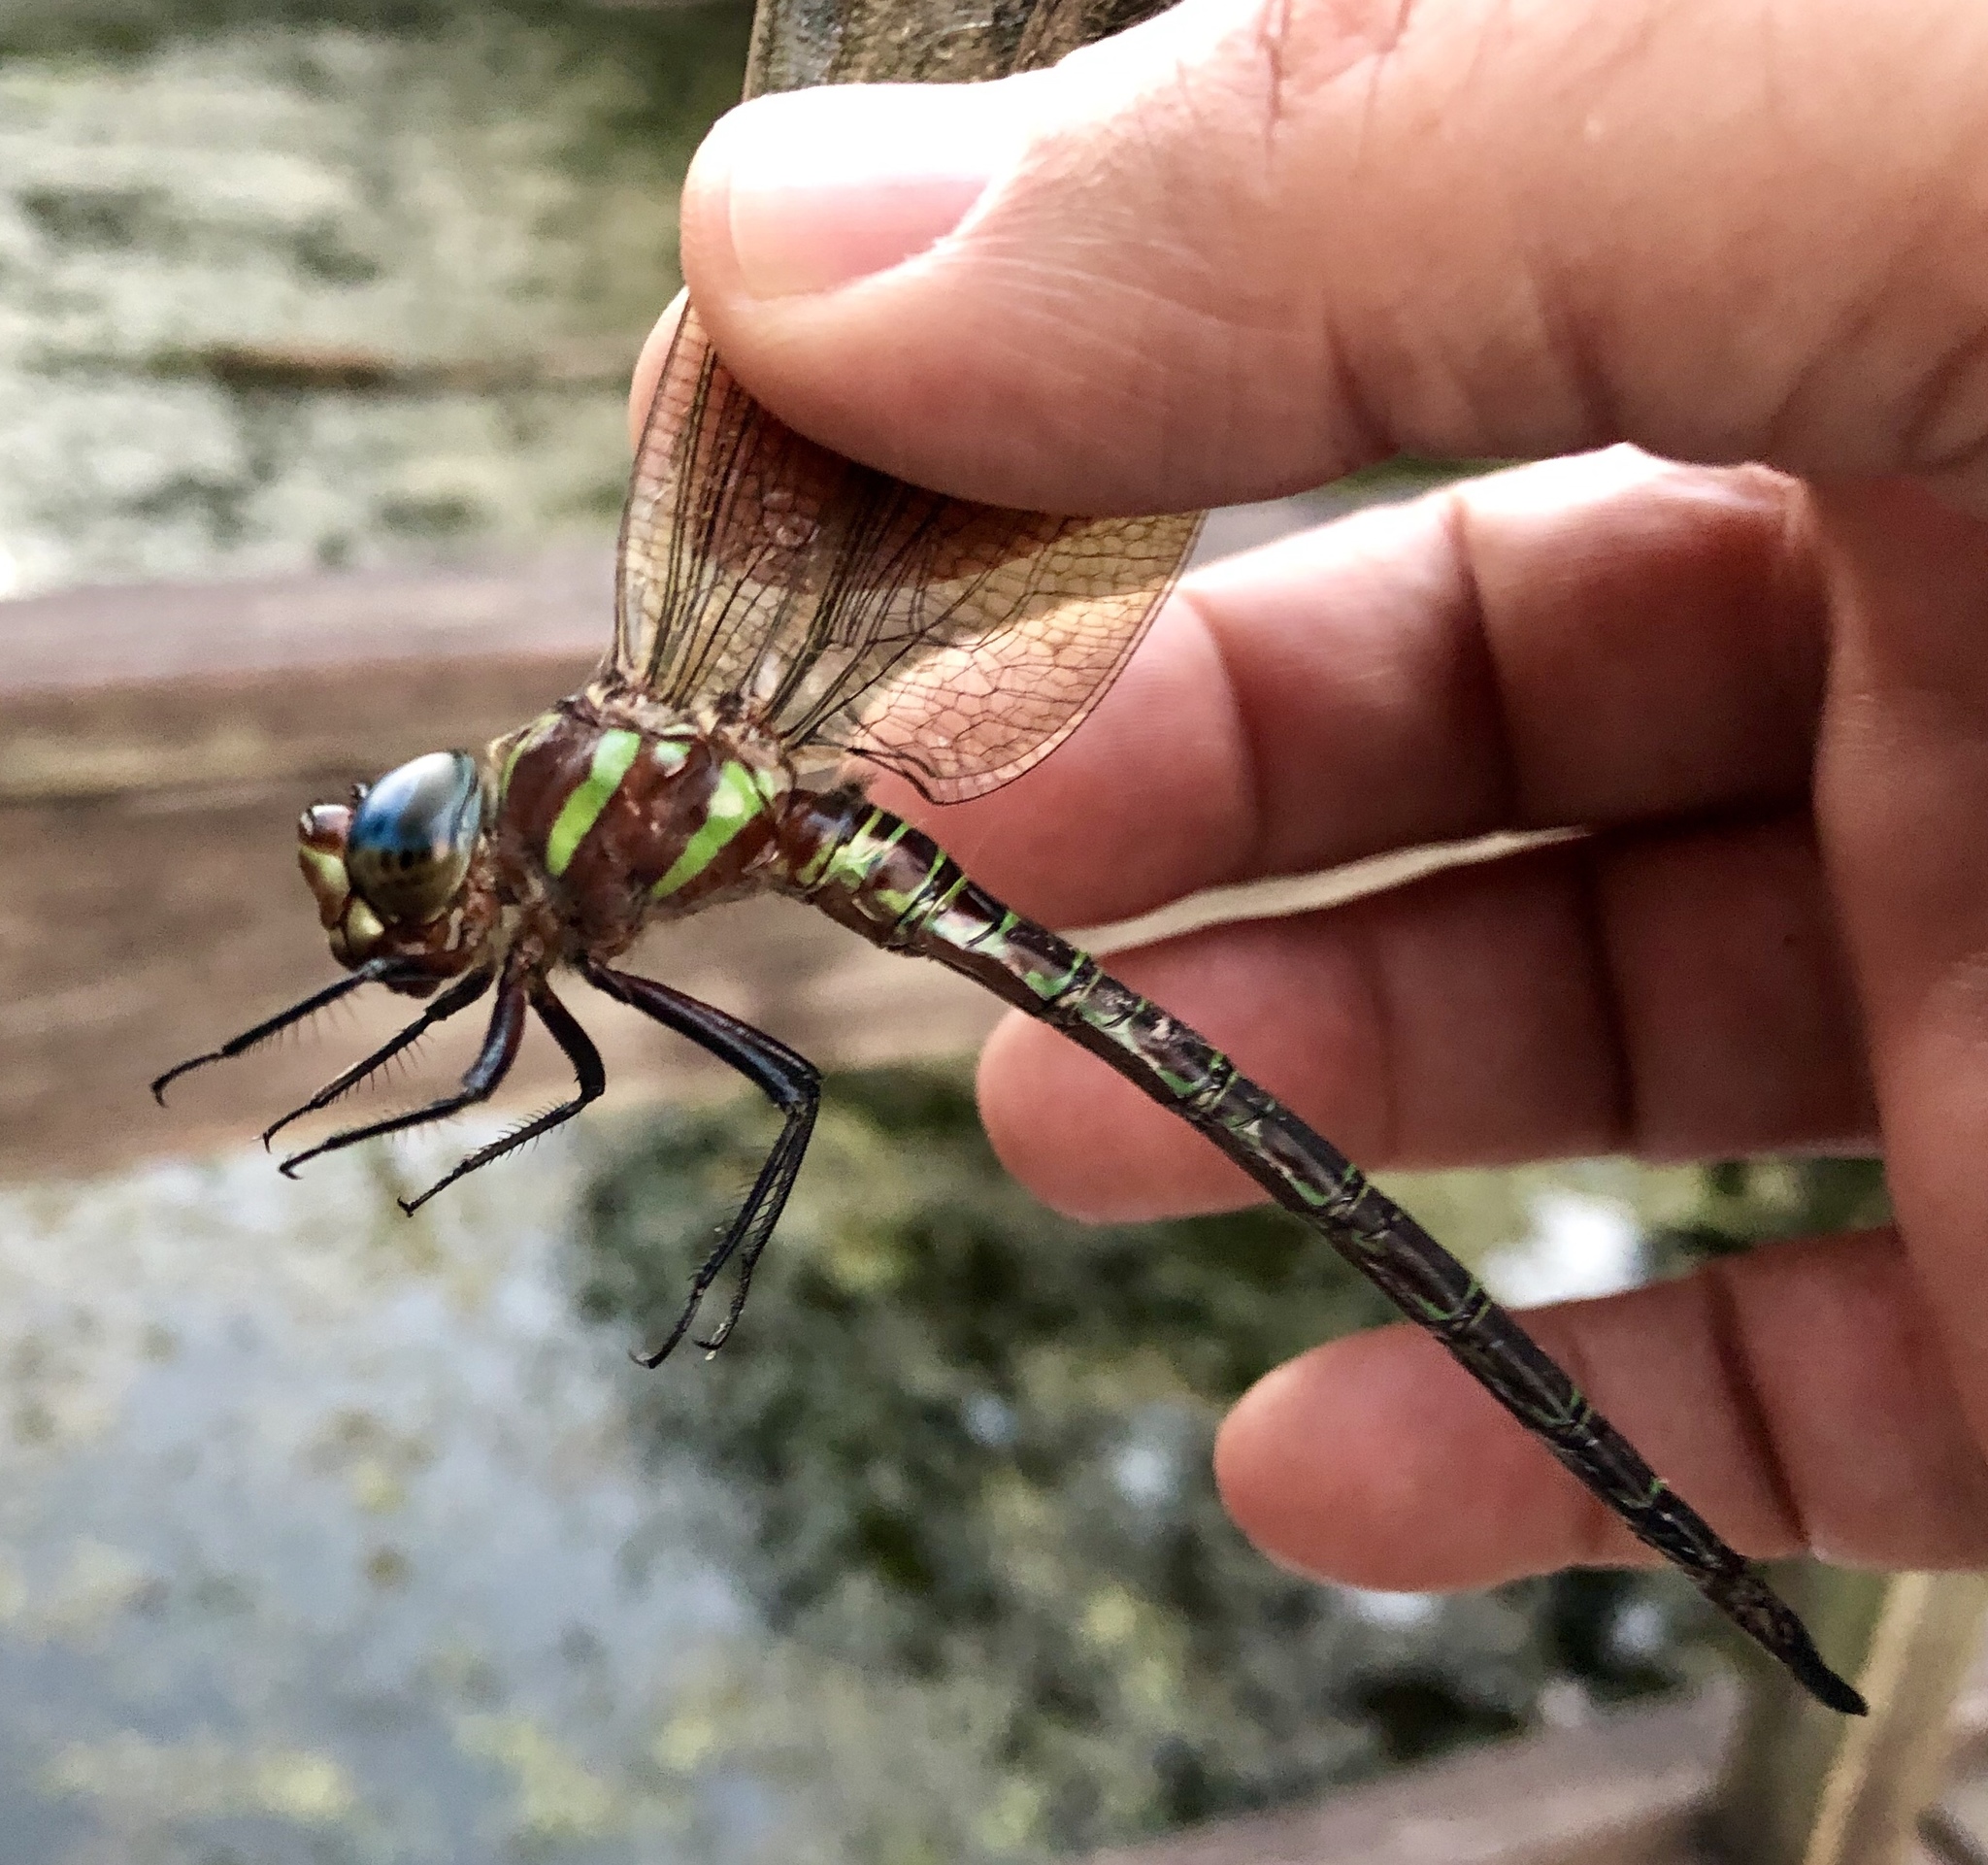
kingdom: Animalia
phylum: Arthropoda
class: Insecta
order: Odonata
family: Aeshnidae
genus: Epiaeschna
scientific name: Epiaeschna heros
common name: Swamp darner
